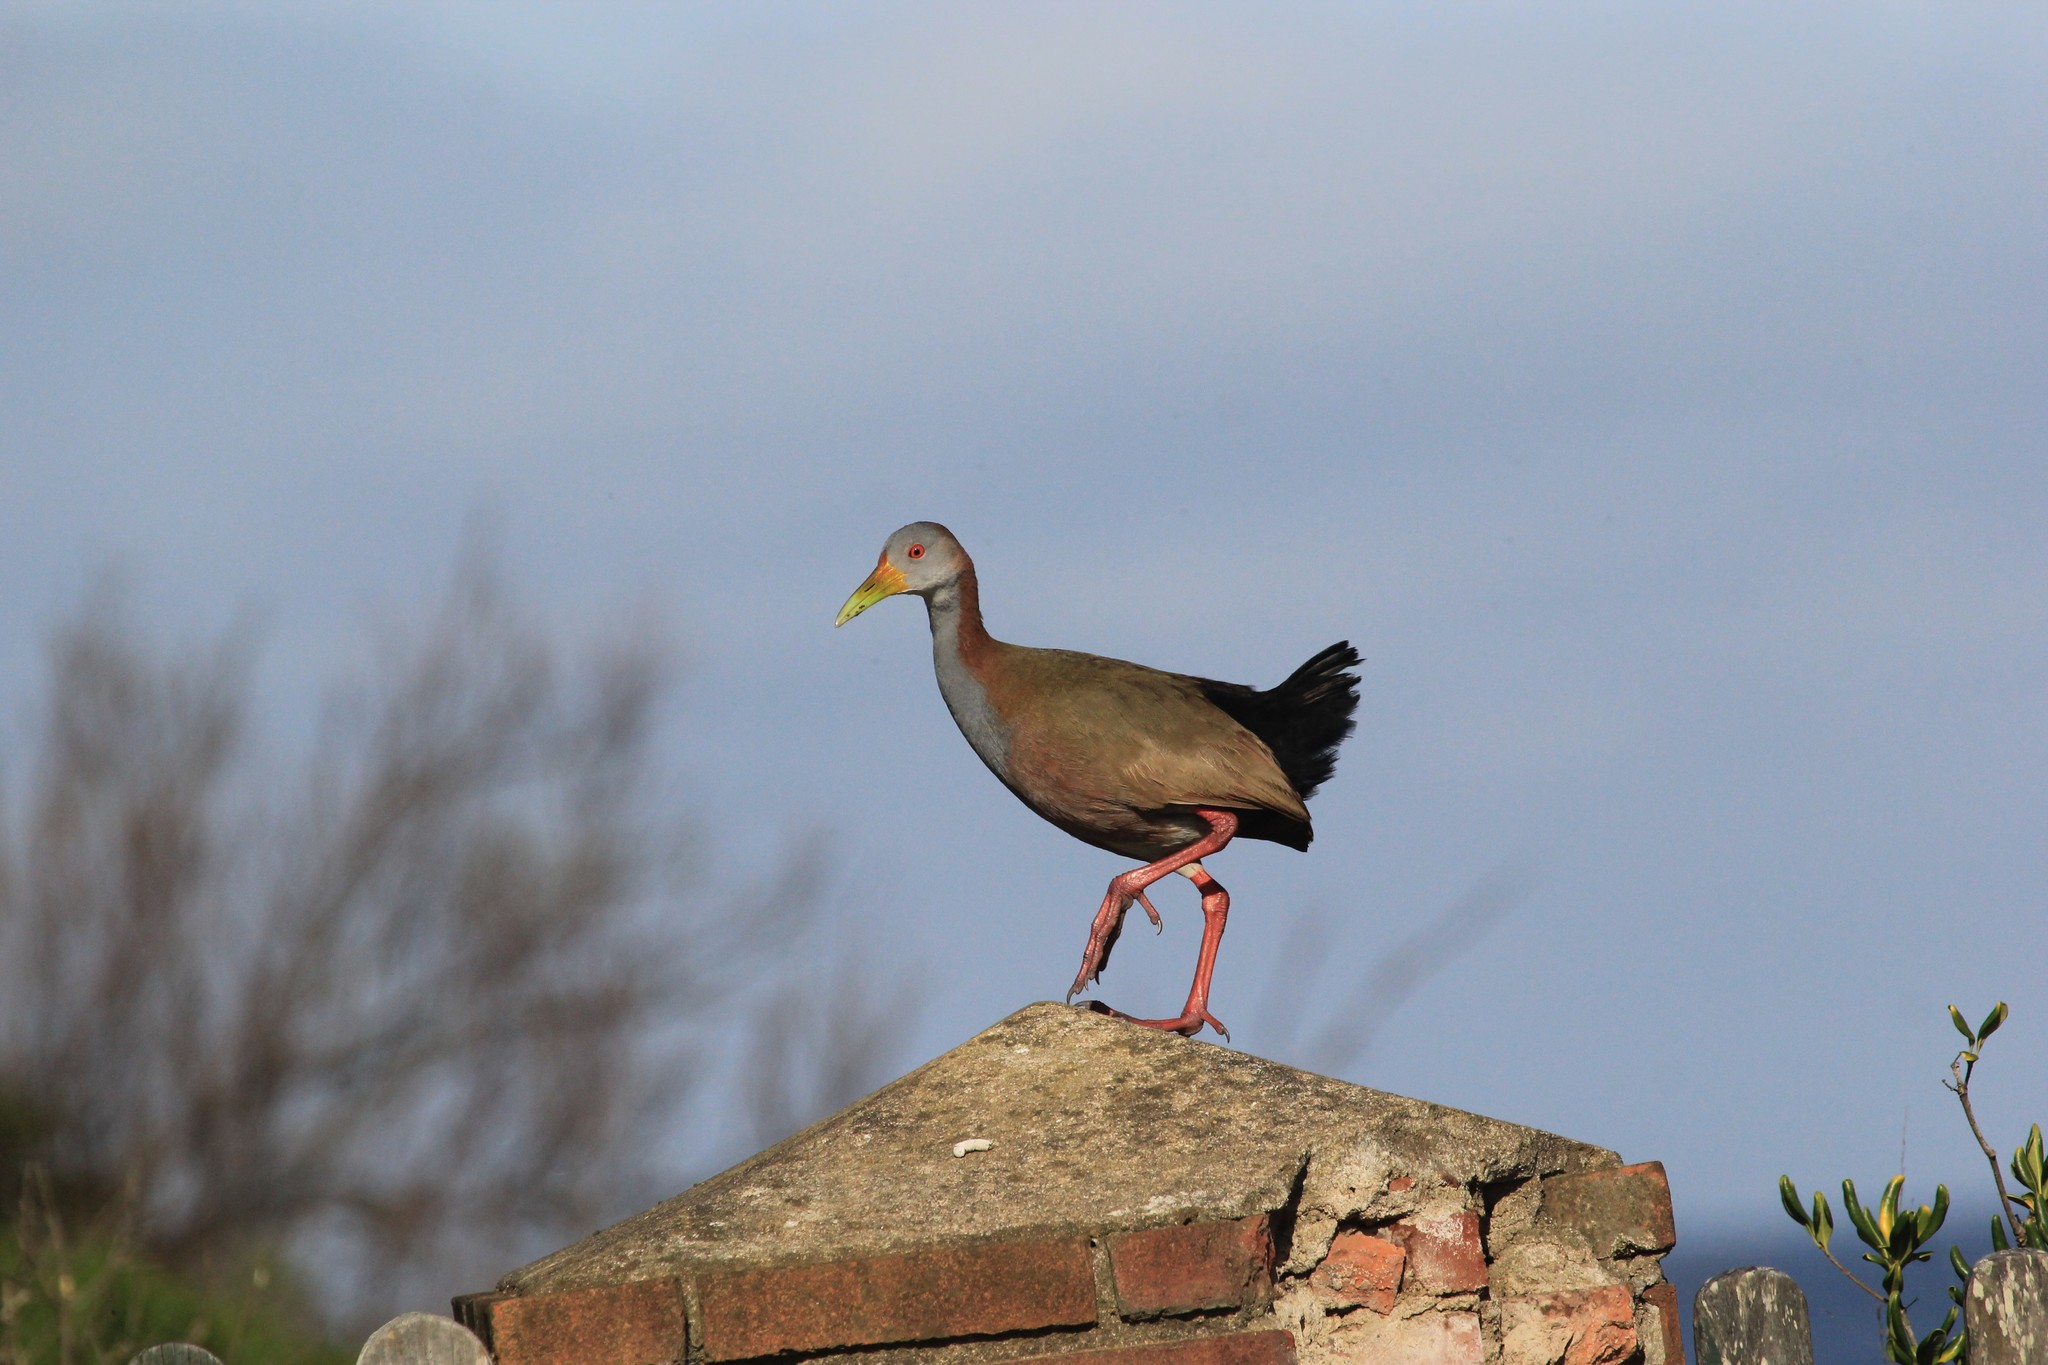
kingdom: Animalia
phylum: Chordata
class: Aves
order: Gruiformes
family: Rallidae
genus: Aramides
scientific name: Aramides ypecaha
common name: Giant wood rail
